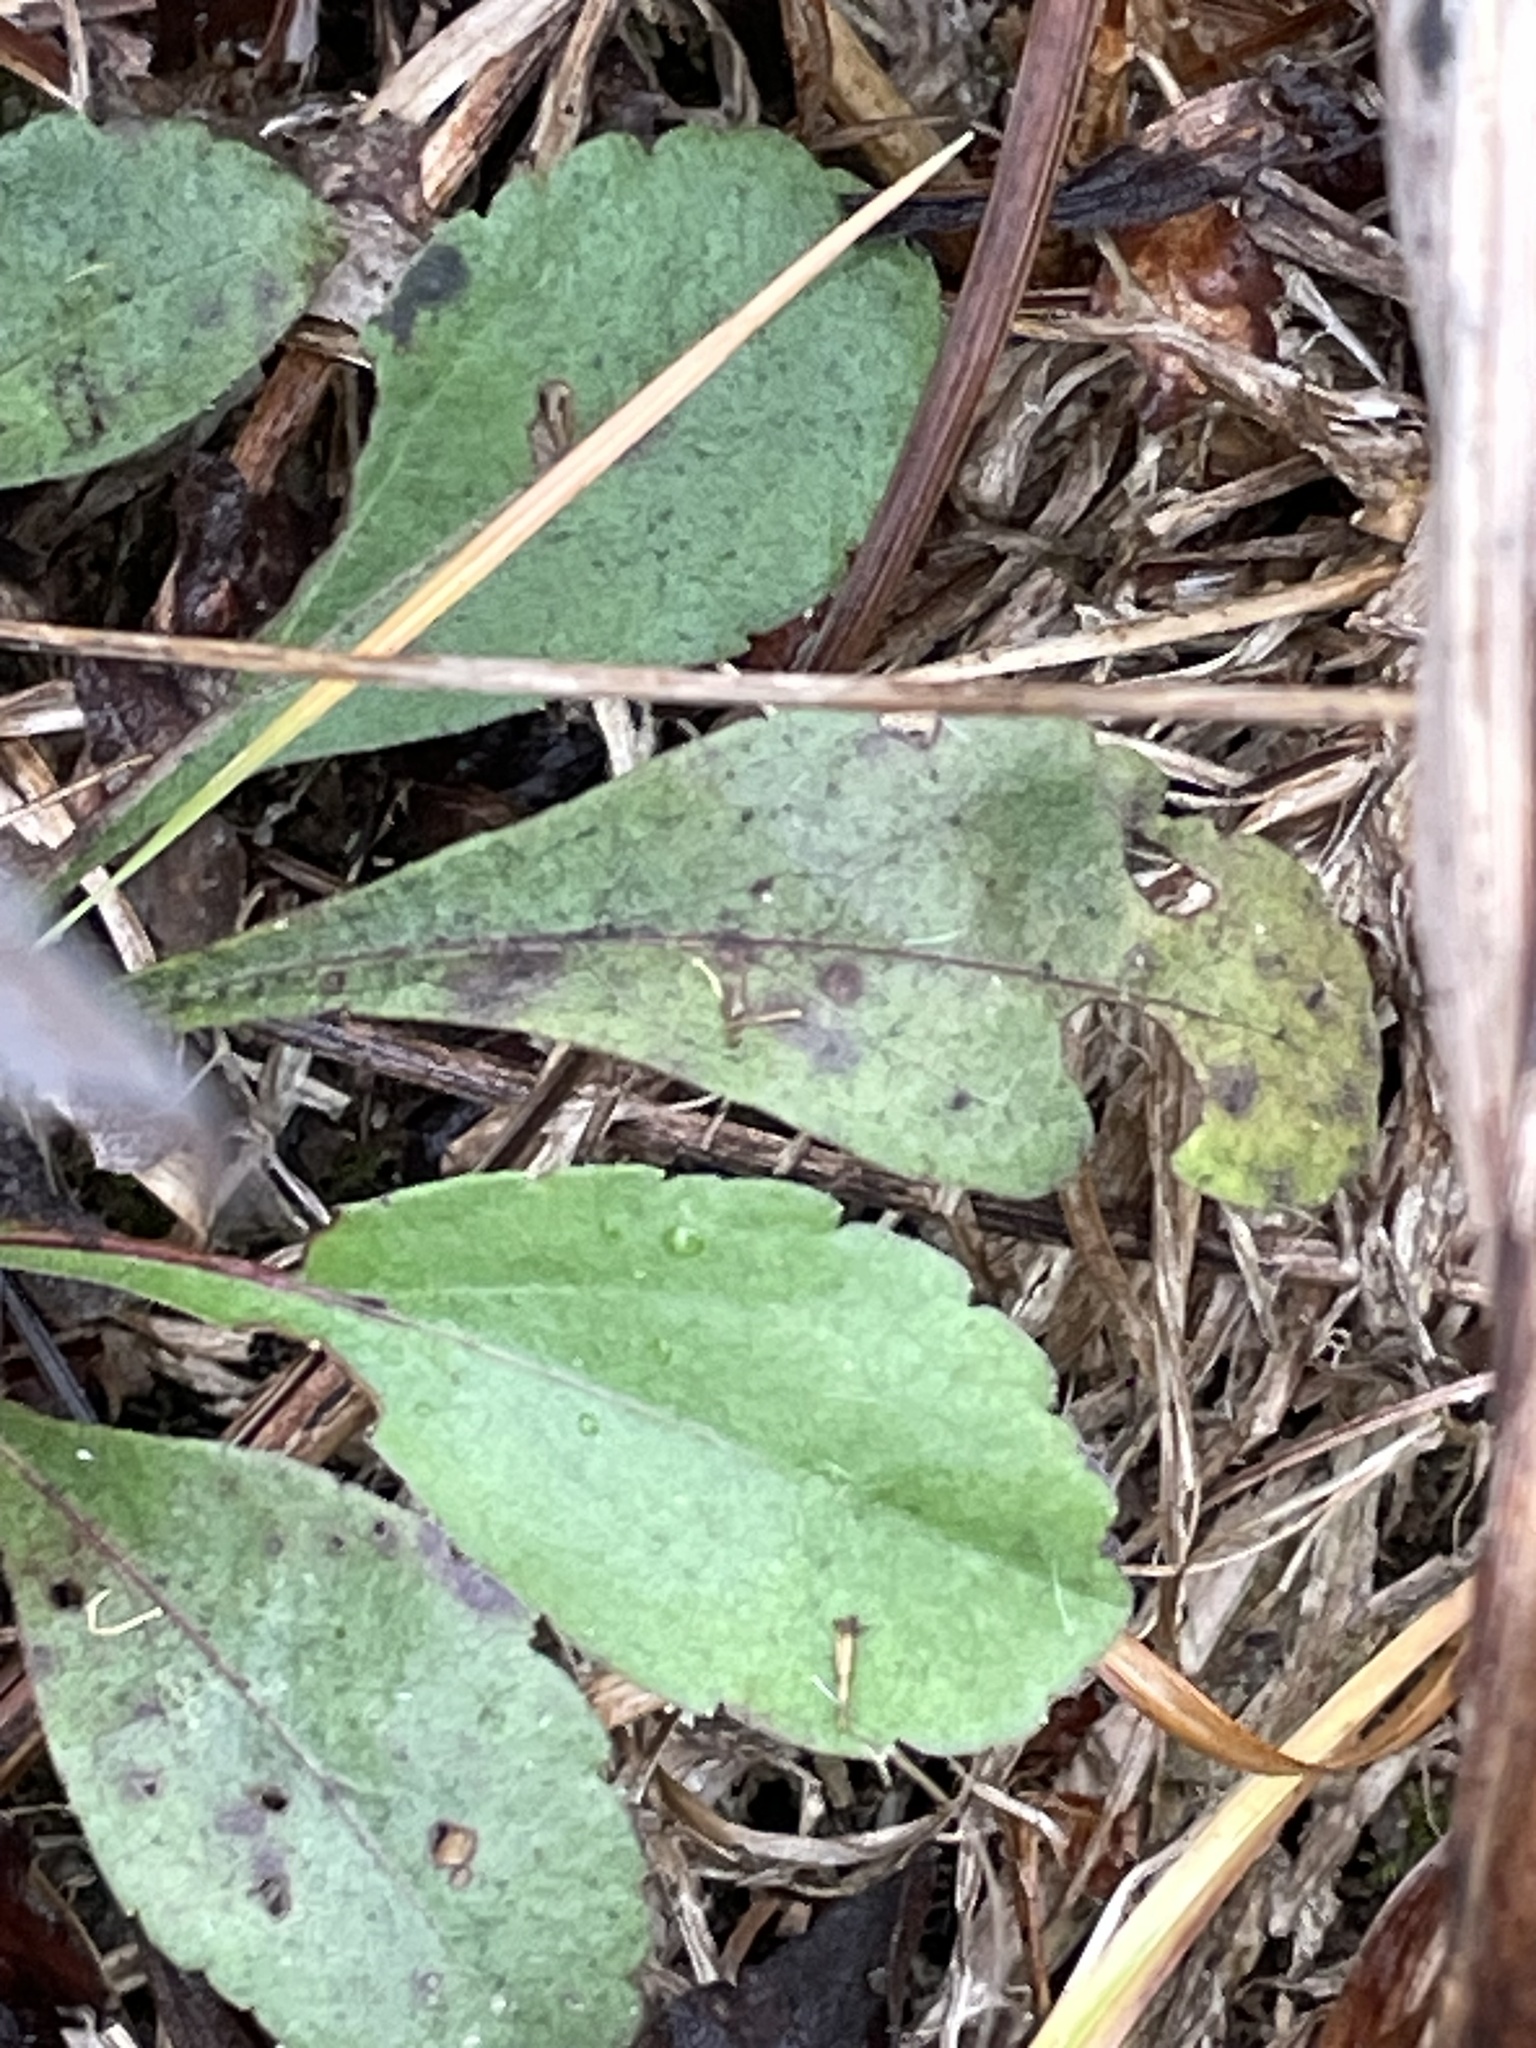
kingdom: Plantae
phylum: Tracheophyta
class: Magnoliopsida
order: Asterales
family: Asteraceae
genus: Solidago
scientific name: Solidago nemoralis
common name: Grey goldenrod
